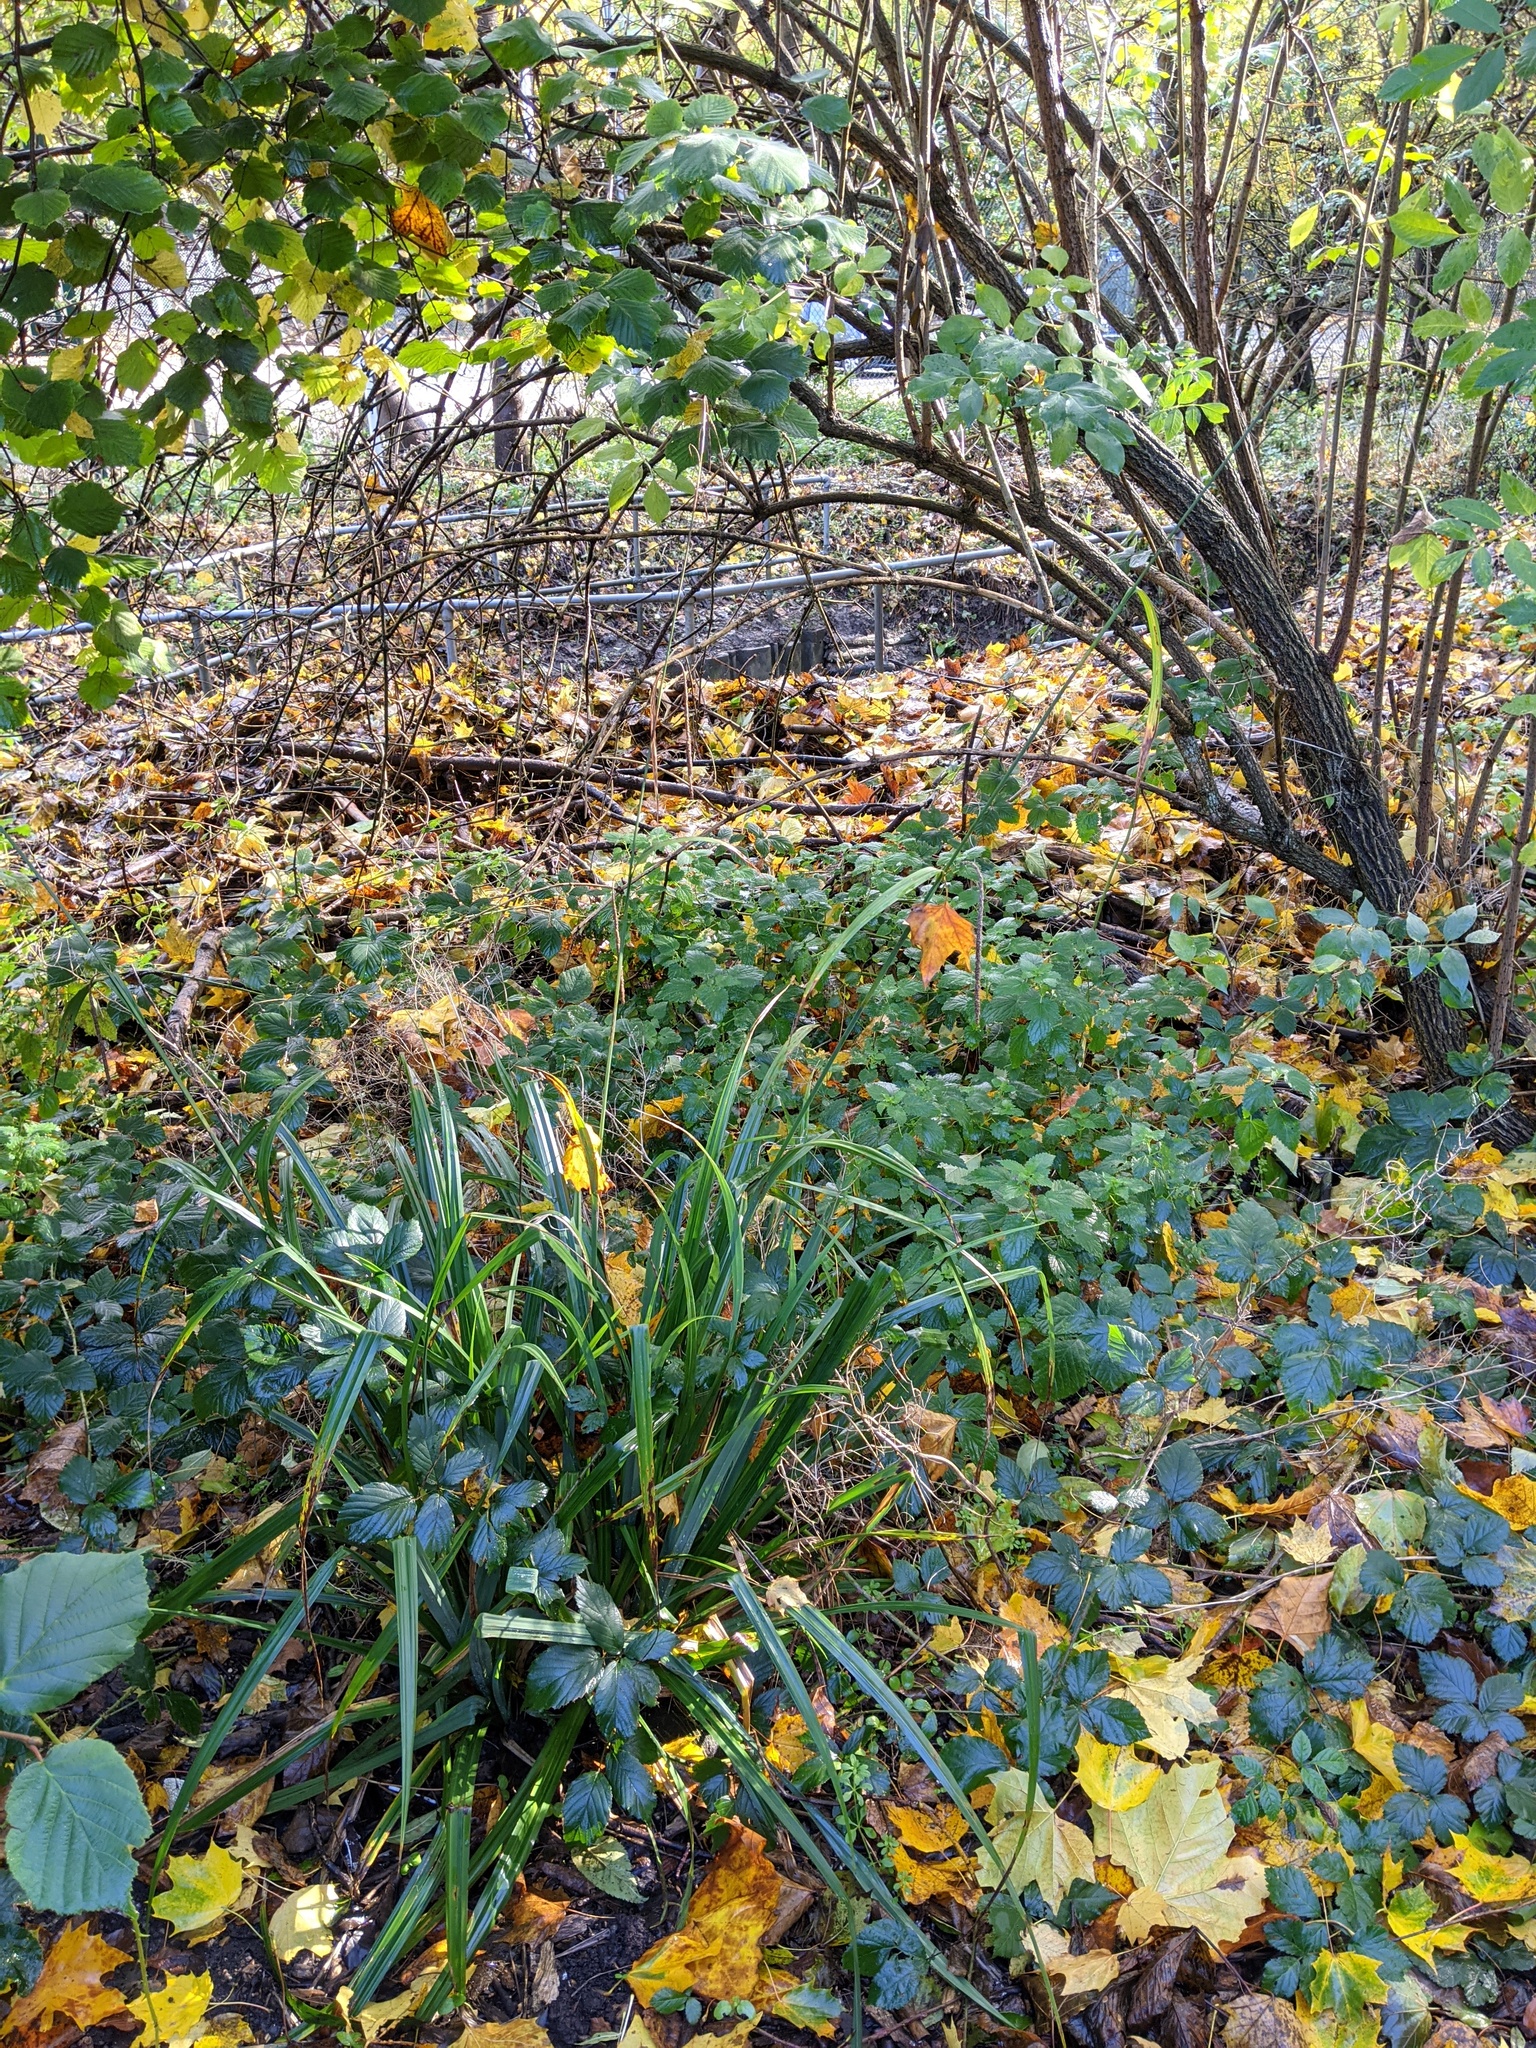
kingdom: Plantae
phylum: Tracheophyta
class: Liliopsida
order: Poales
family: Cyperaceae
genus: Carex
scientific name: Carex pendula
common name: Pendulous sedge
